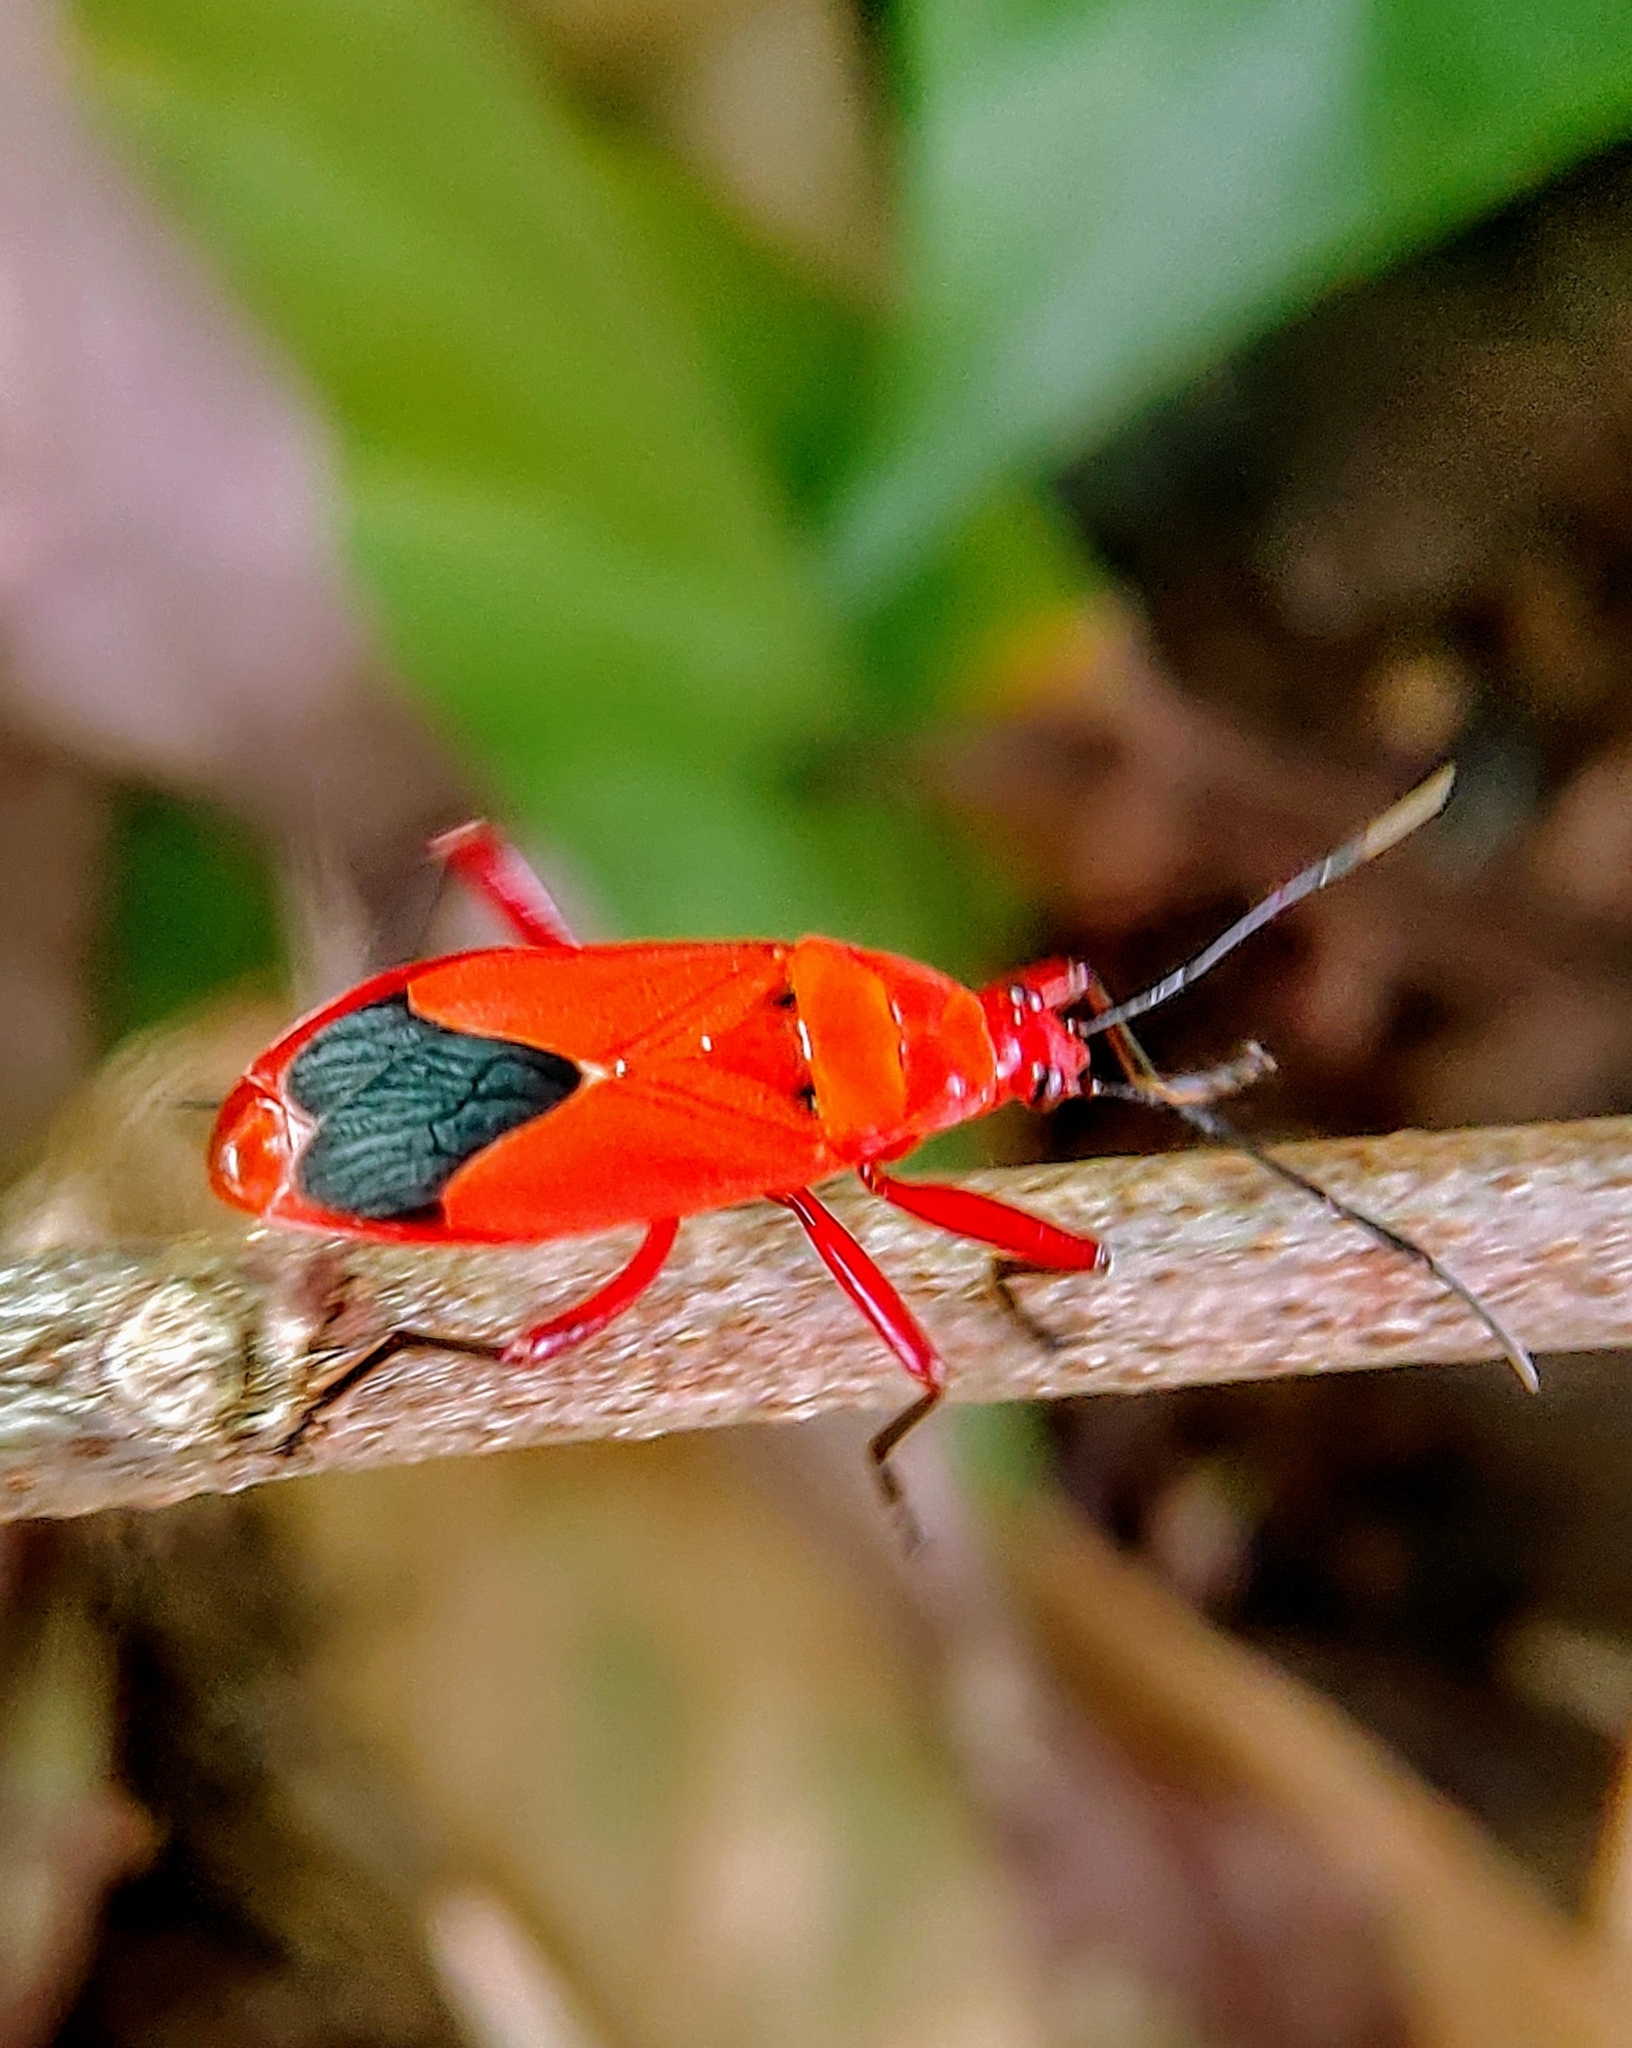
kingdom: Animalia
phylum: Arthropoda
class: Insecta
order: Hemiptera
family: Pyrrhocoridae
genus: Antilochus
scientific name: Antilochus coquebertii
